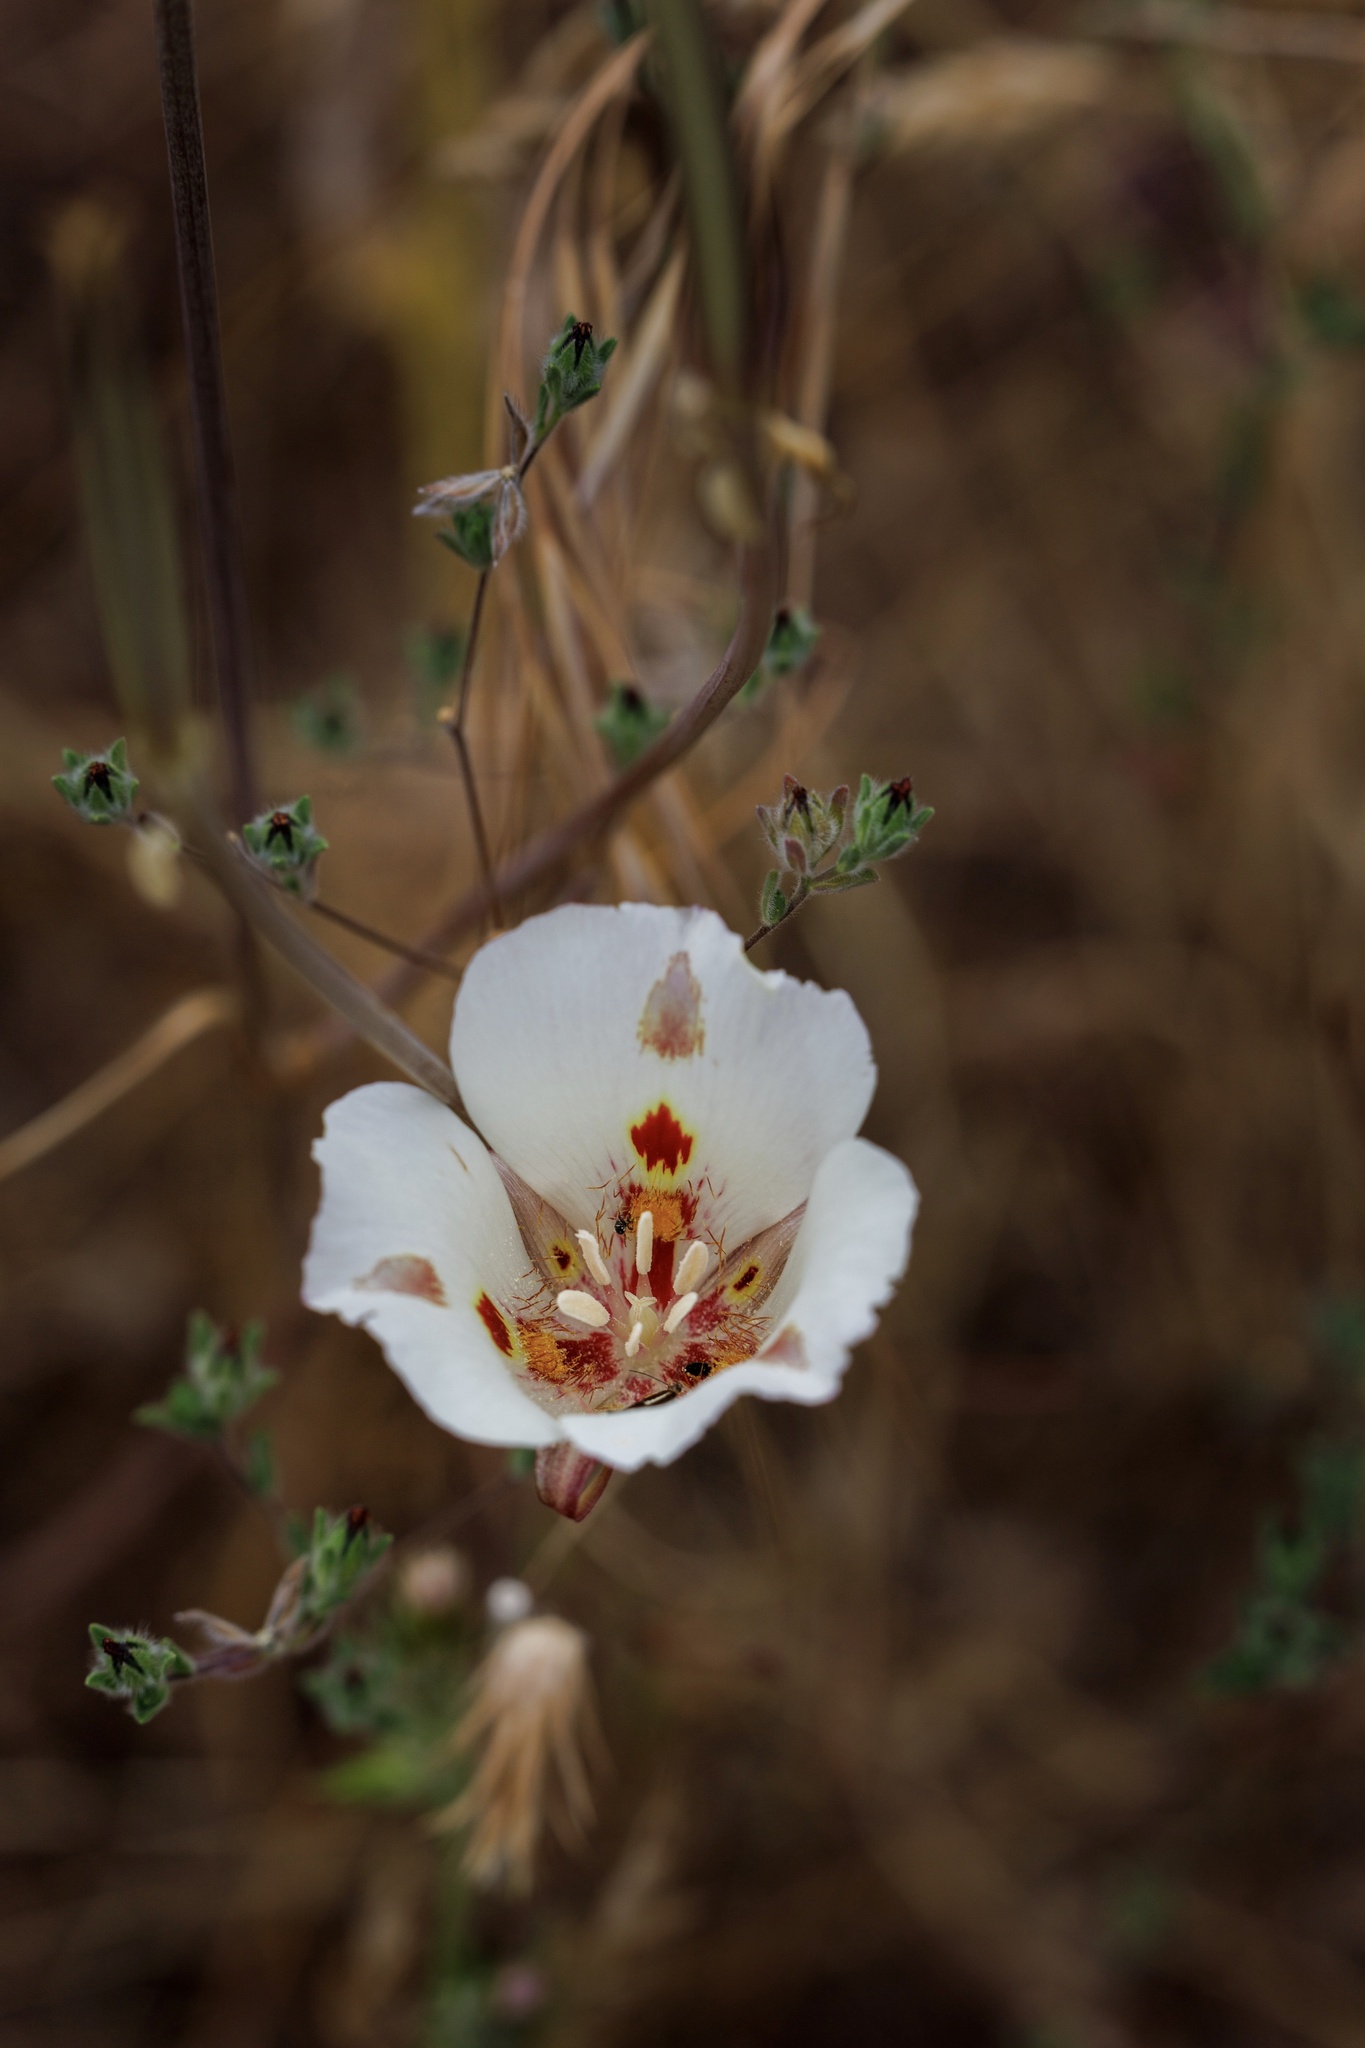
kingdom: Plantae
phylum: Tracheophyta
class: Liliopsida
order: Liliales
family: Liliaceae
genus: Calochortus
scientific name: Calochortus venustus
